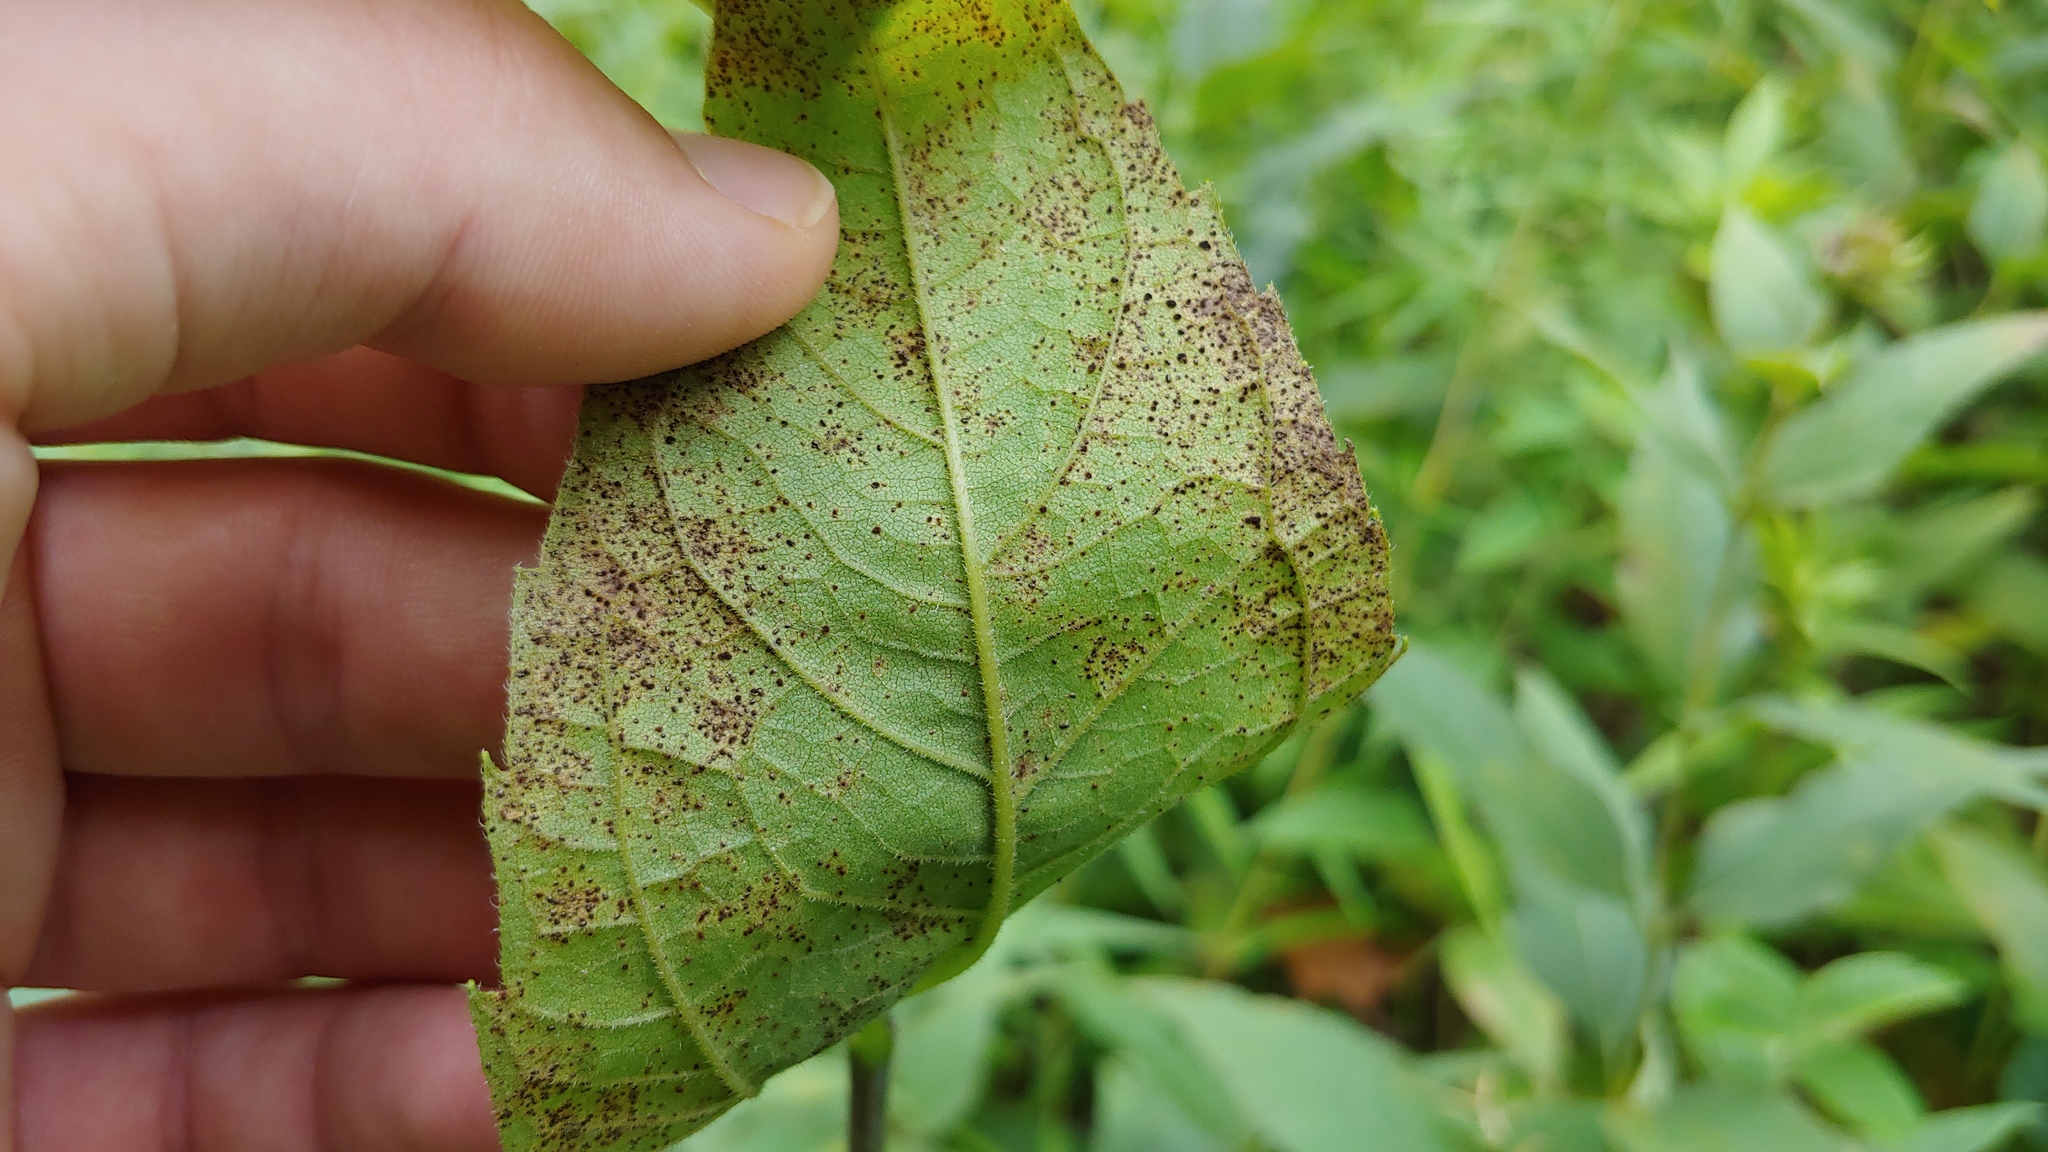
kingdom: Fungi
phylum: Basidiomycota
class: Pucciniomycetes
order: Pucciniales
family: Pucciniaceae
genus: Puccinia
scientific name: Puccinia helianthi-mollis
